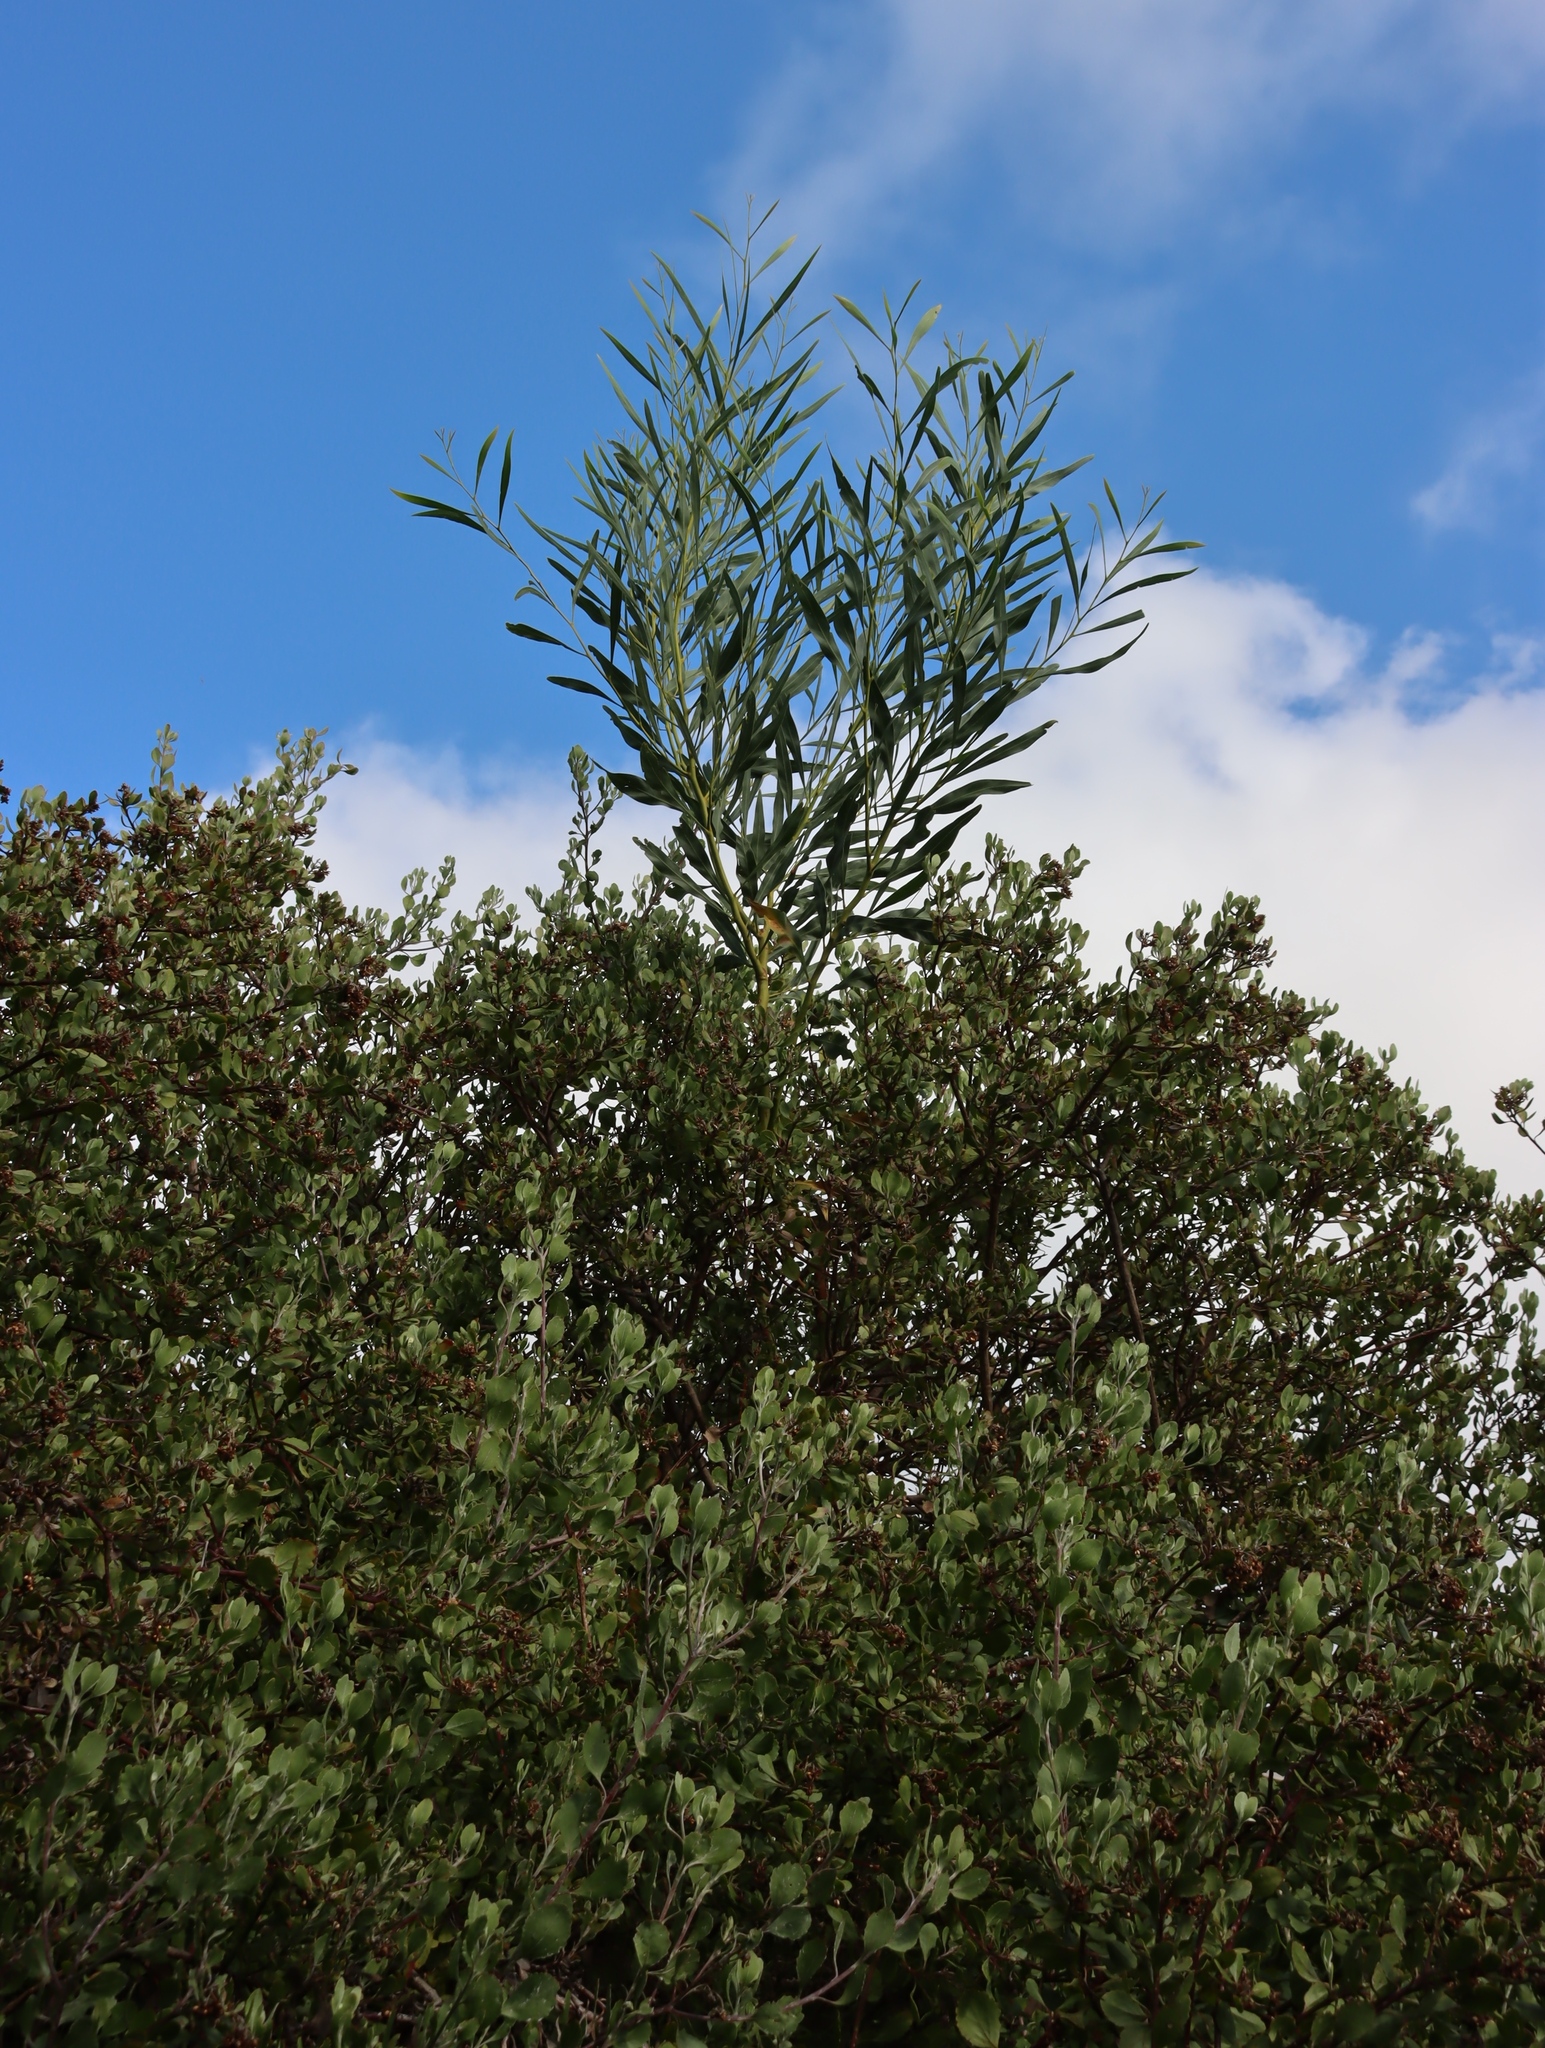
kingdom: Plantae
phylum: Tracheophyta
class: Magnoliopsida
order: Fabales
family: Fabaceae
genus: Acacia
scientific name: Acacia saligna
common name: Orange wattle
